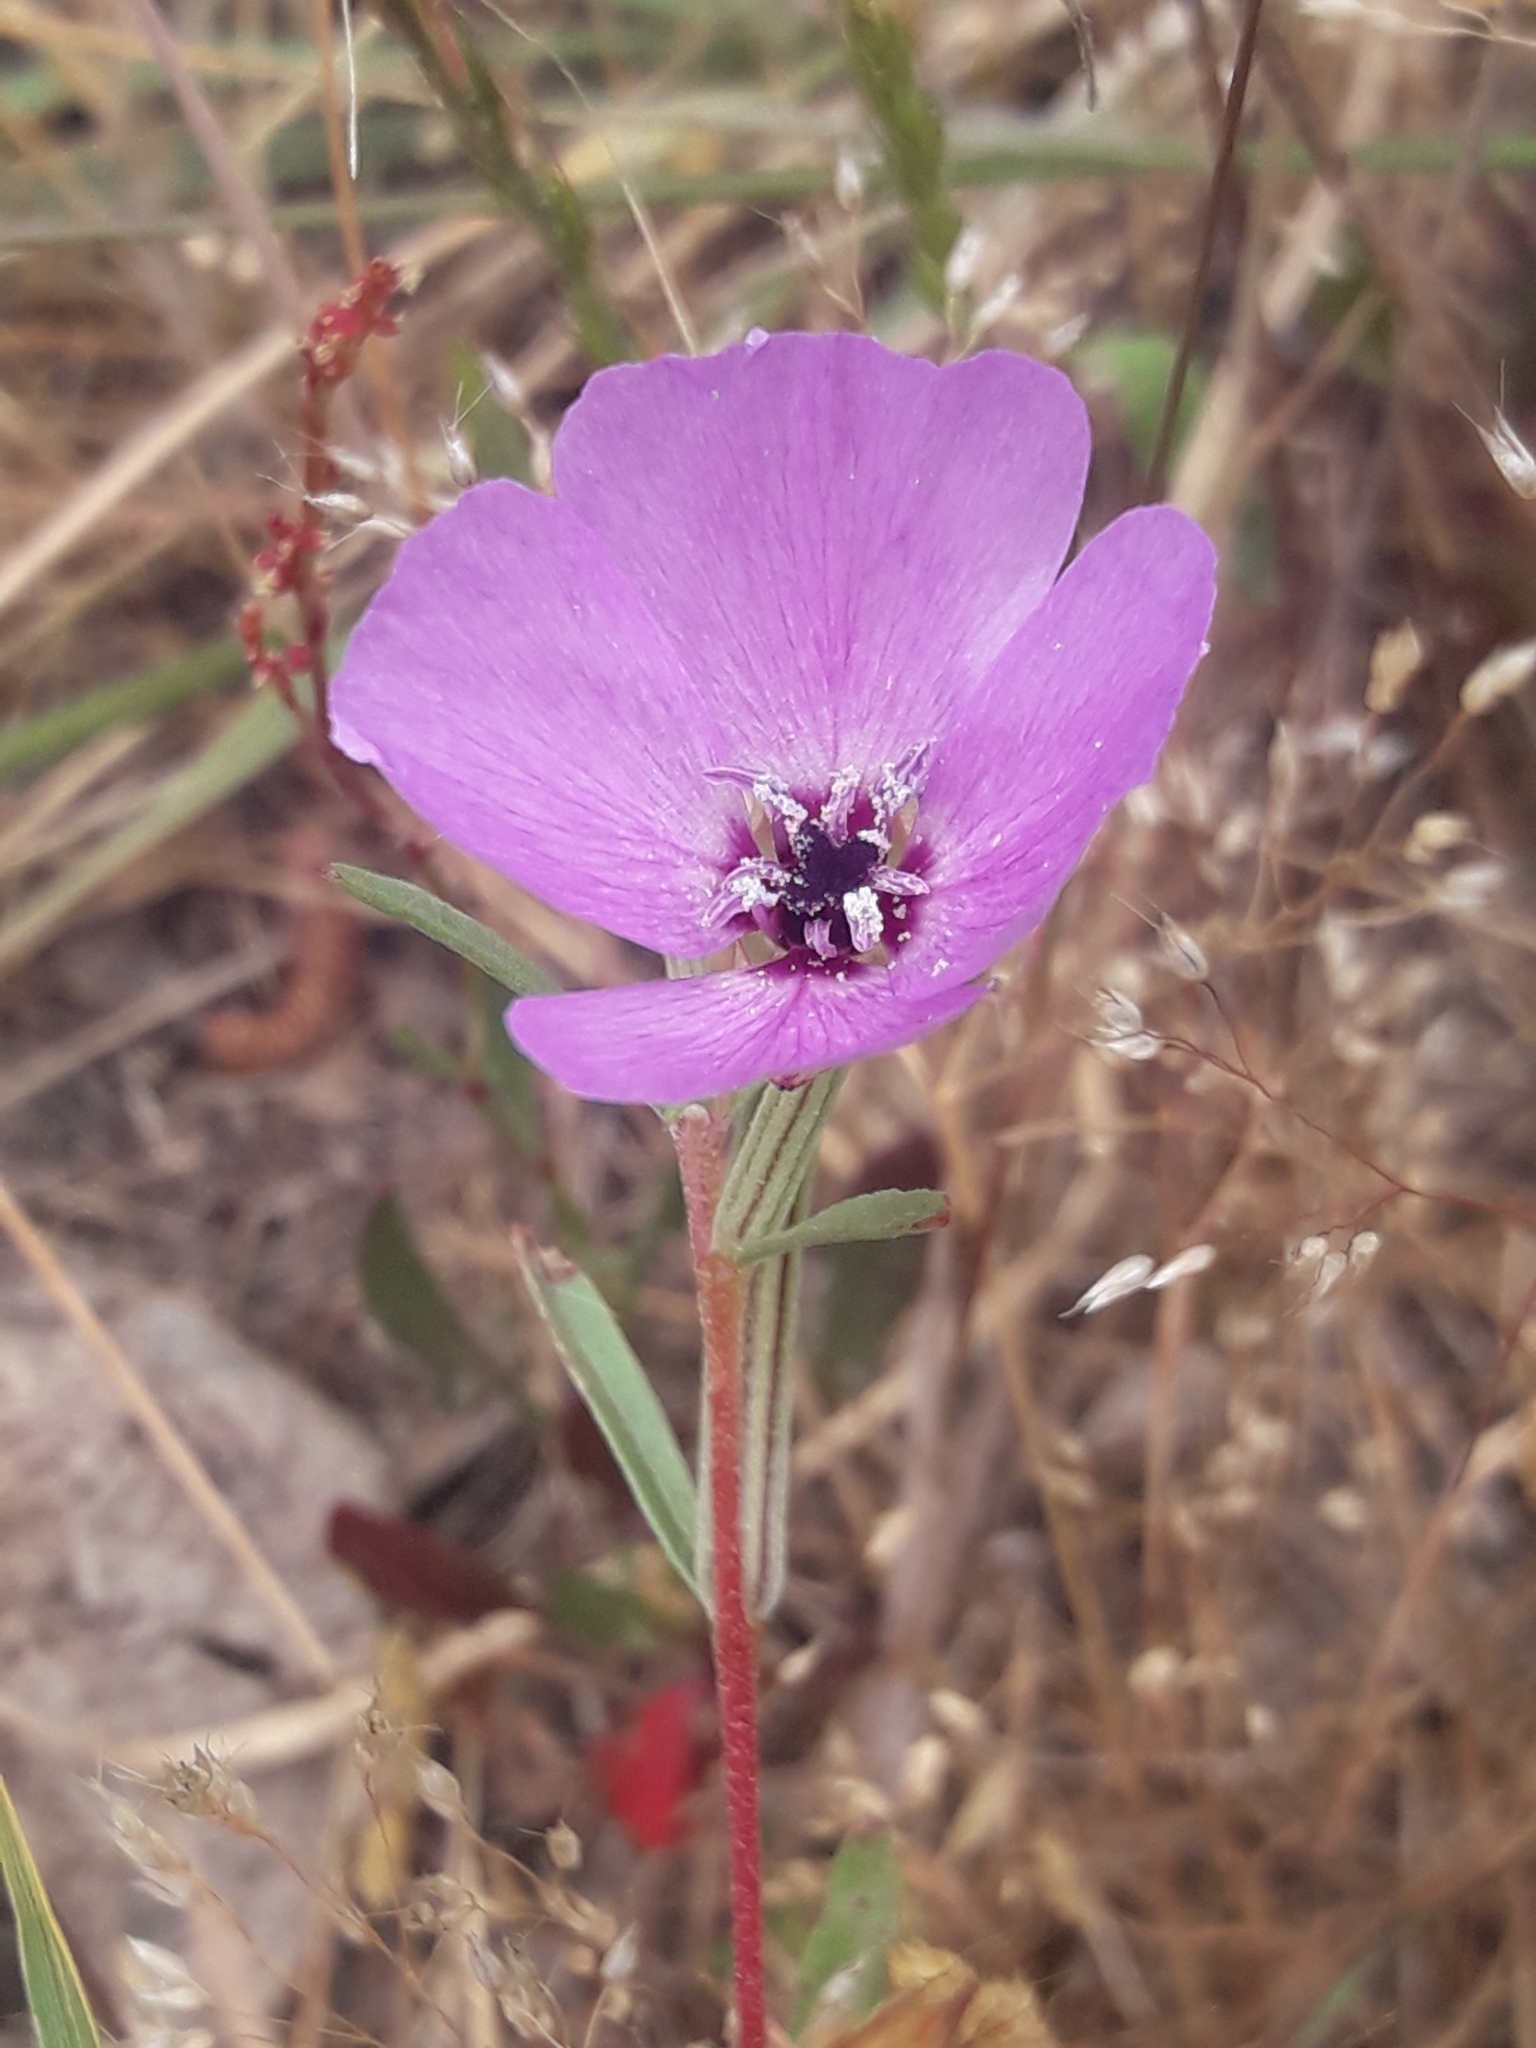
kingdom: Plantae
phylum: Tracheophyta
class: Magnoliopsida
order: Myrtales
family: Onagraceae
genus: Clarkia
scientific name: Clarkia tenella
